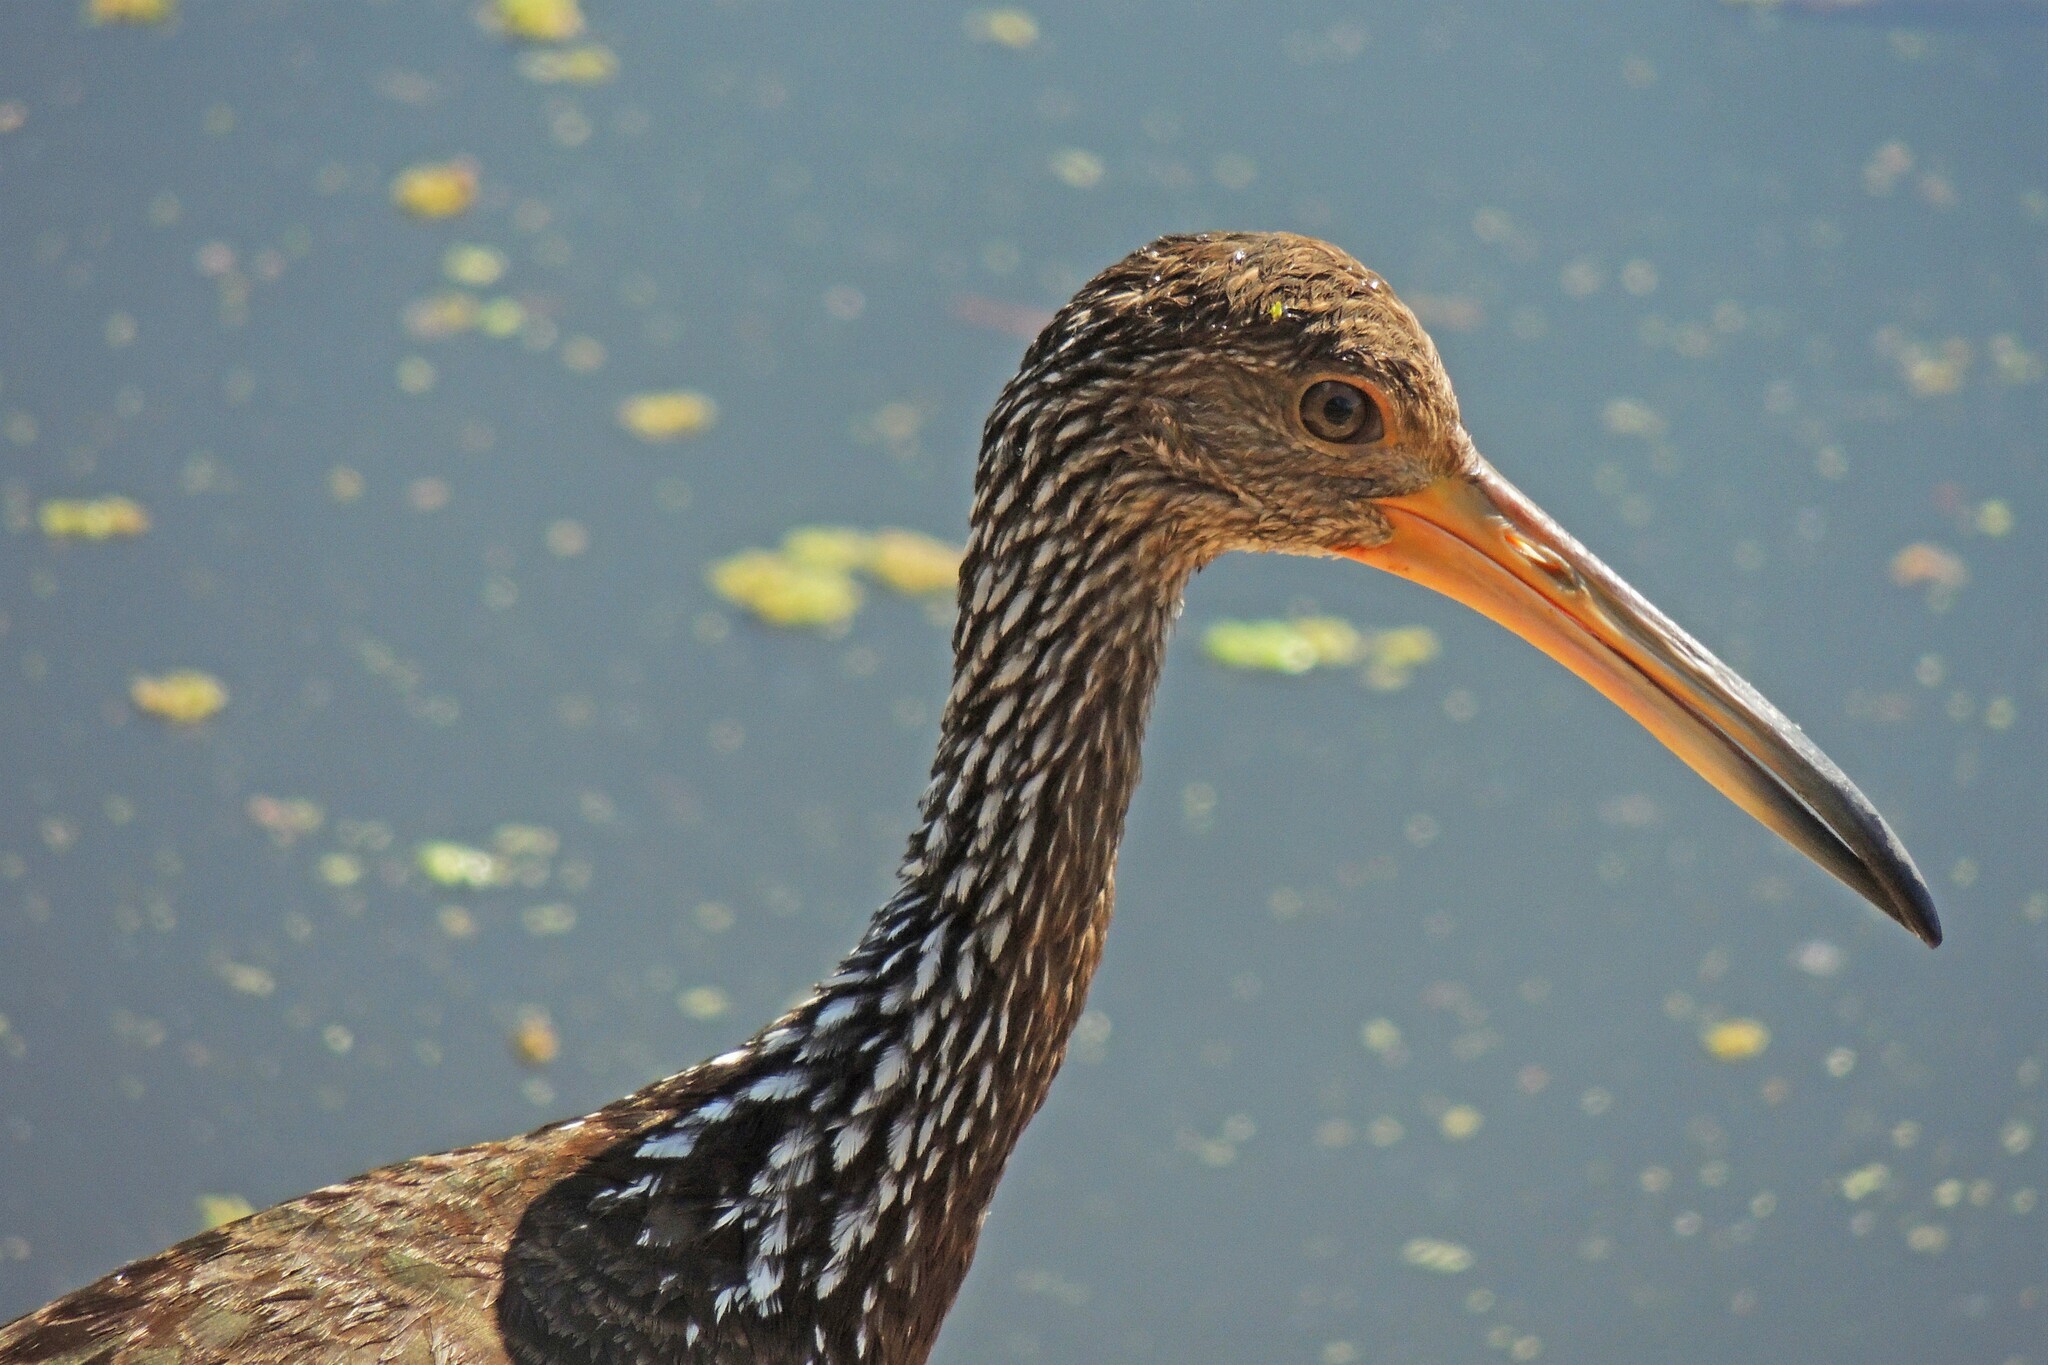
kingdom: Animalia
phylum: Chordata
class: Aves
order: Gruiformes
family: Aramidae
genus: Aramus
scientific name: Aramus guarauna
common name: Limpkin
